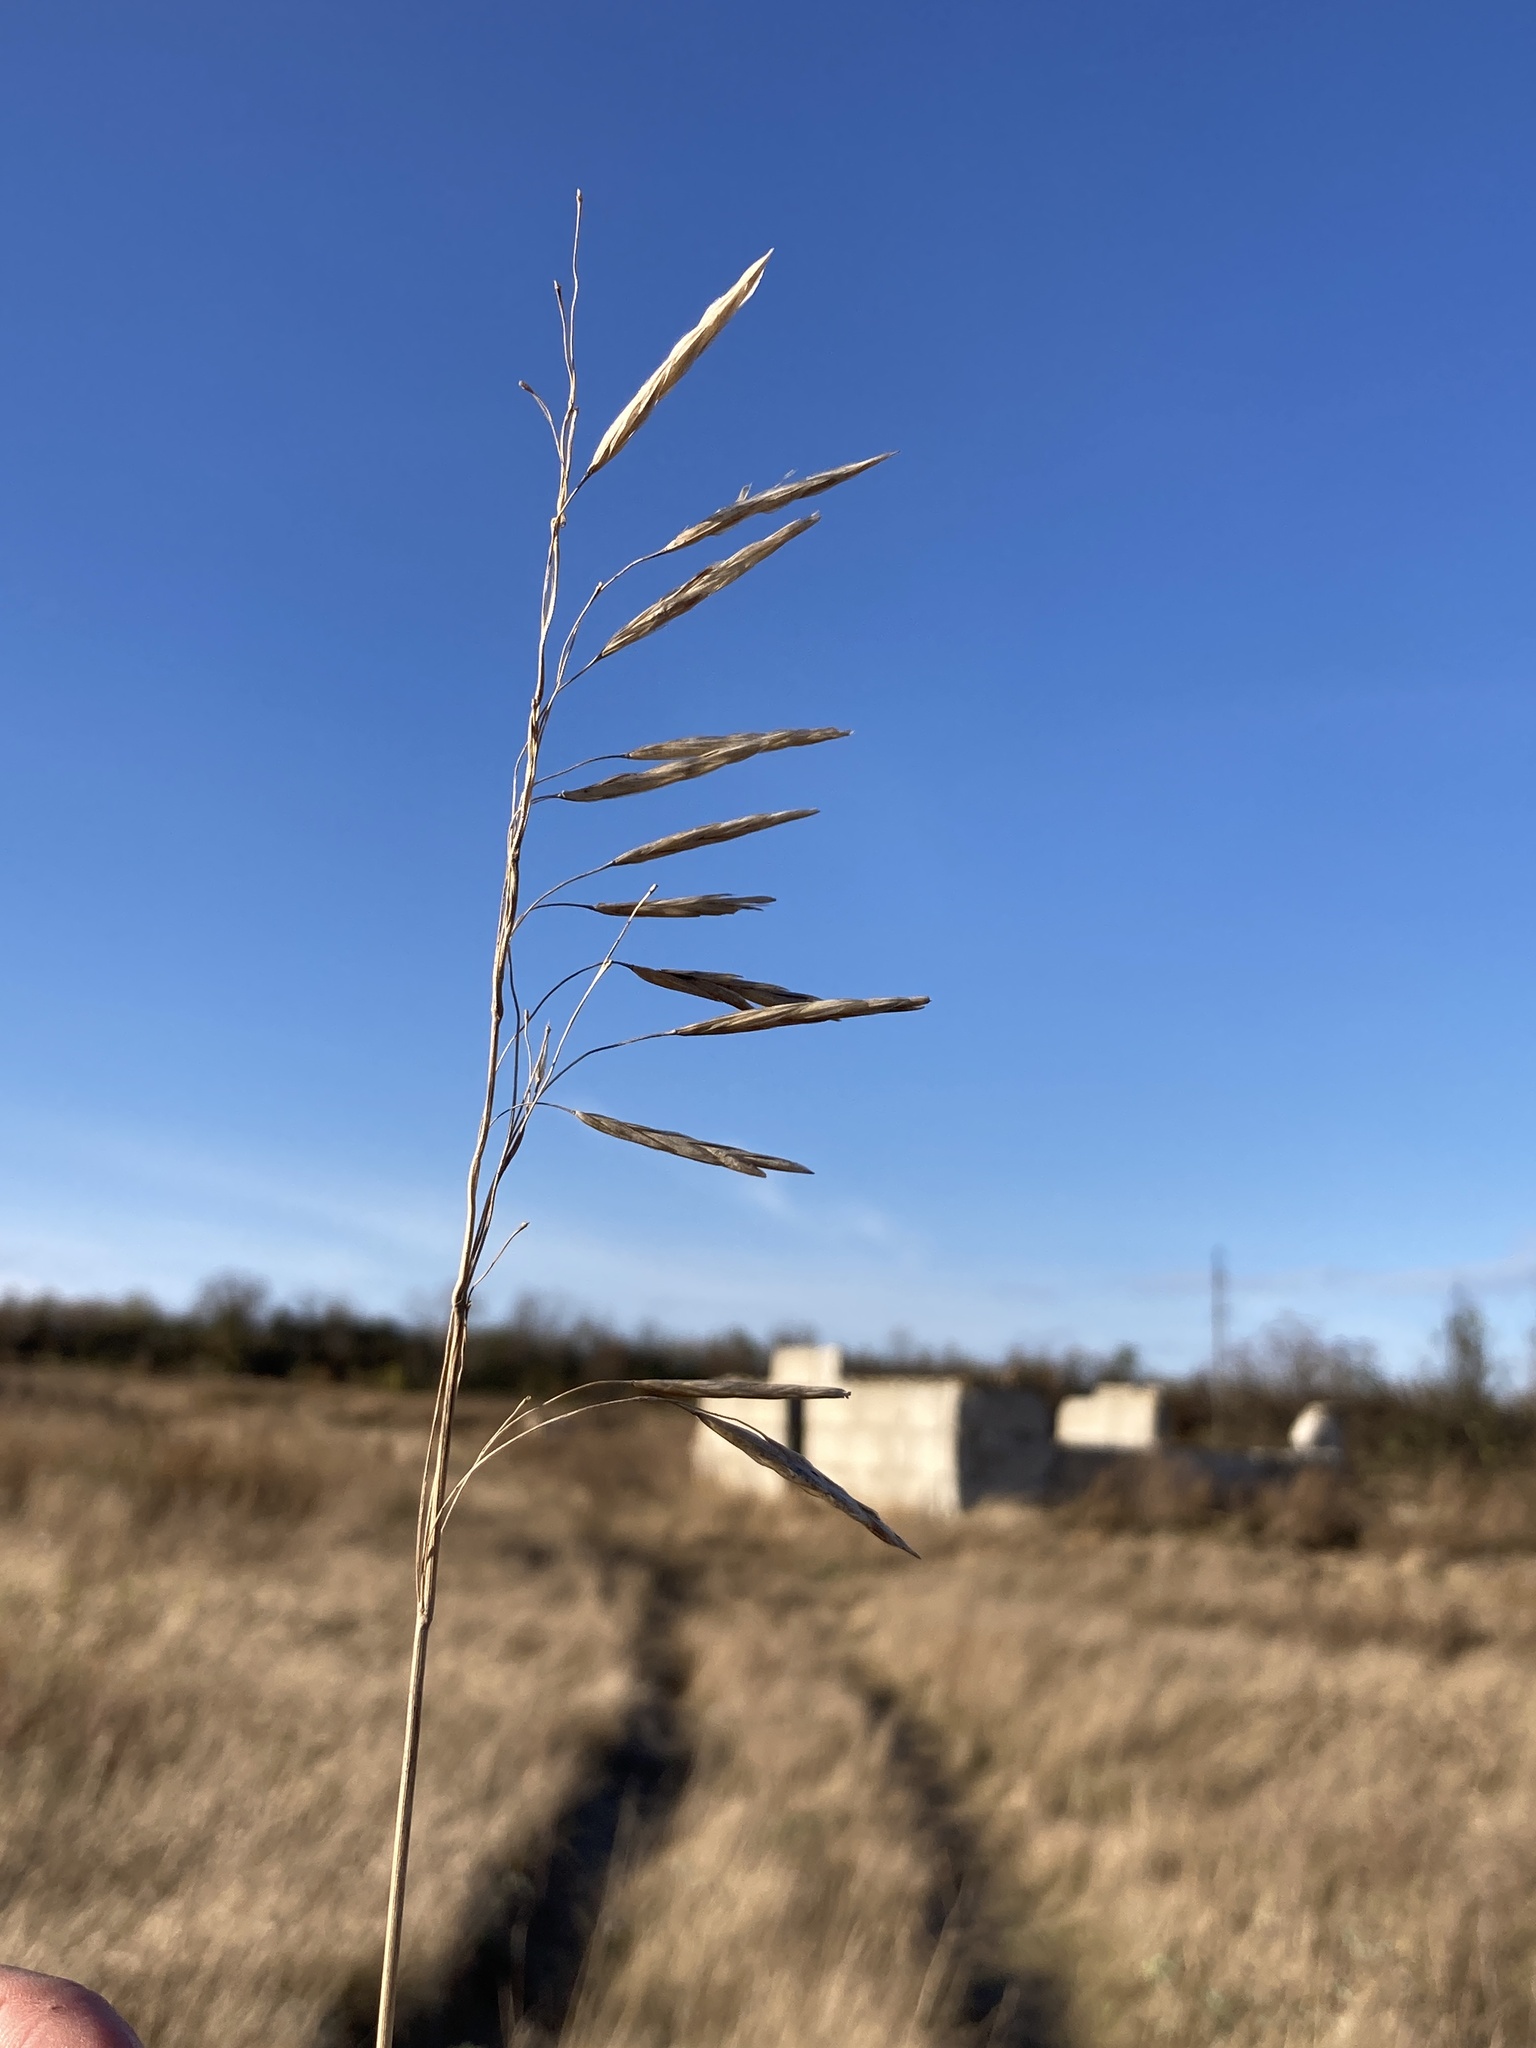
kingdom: Plantae
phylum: Tracheophyta
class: Liliopsida
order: Poales
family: Poaceae
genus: Bromus
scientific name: Bromus inermis
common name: Smooth brome
